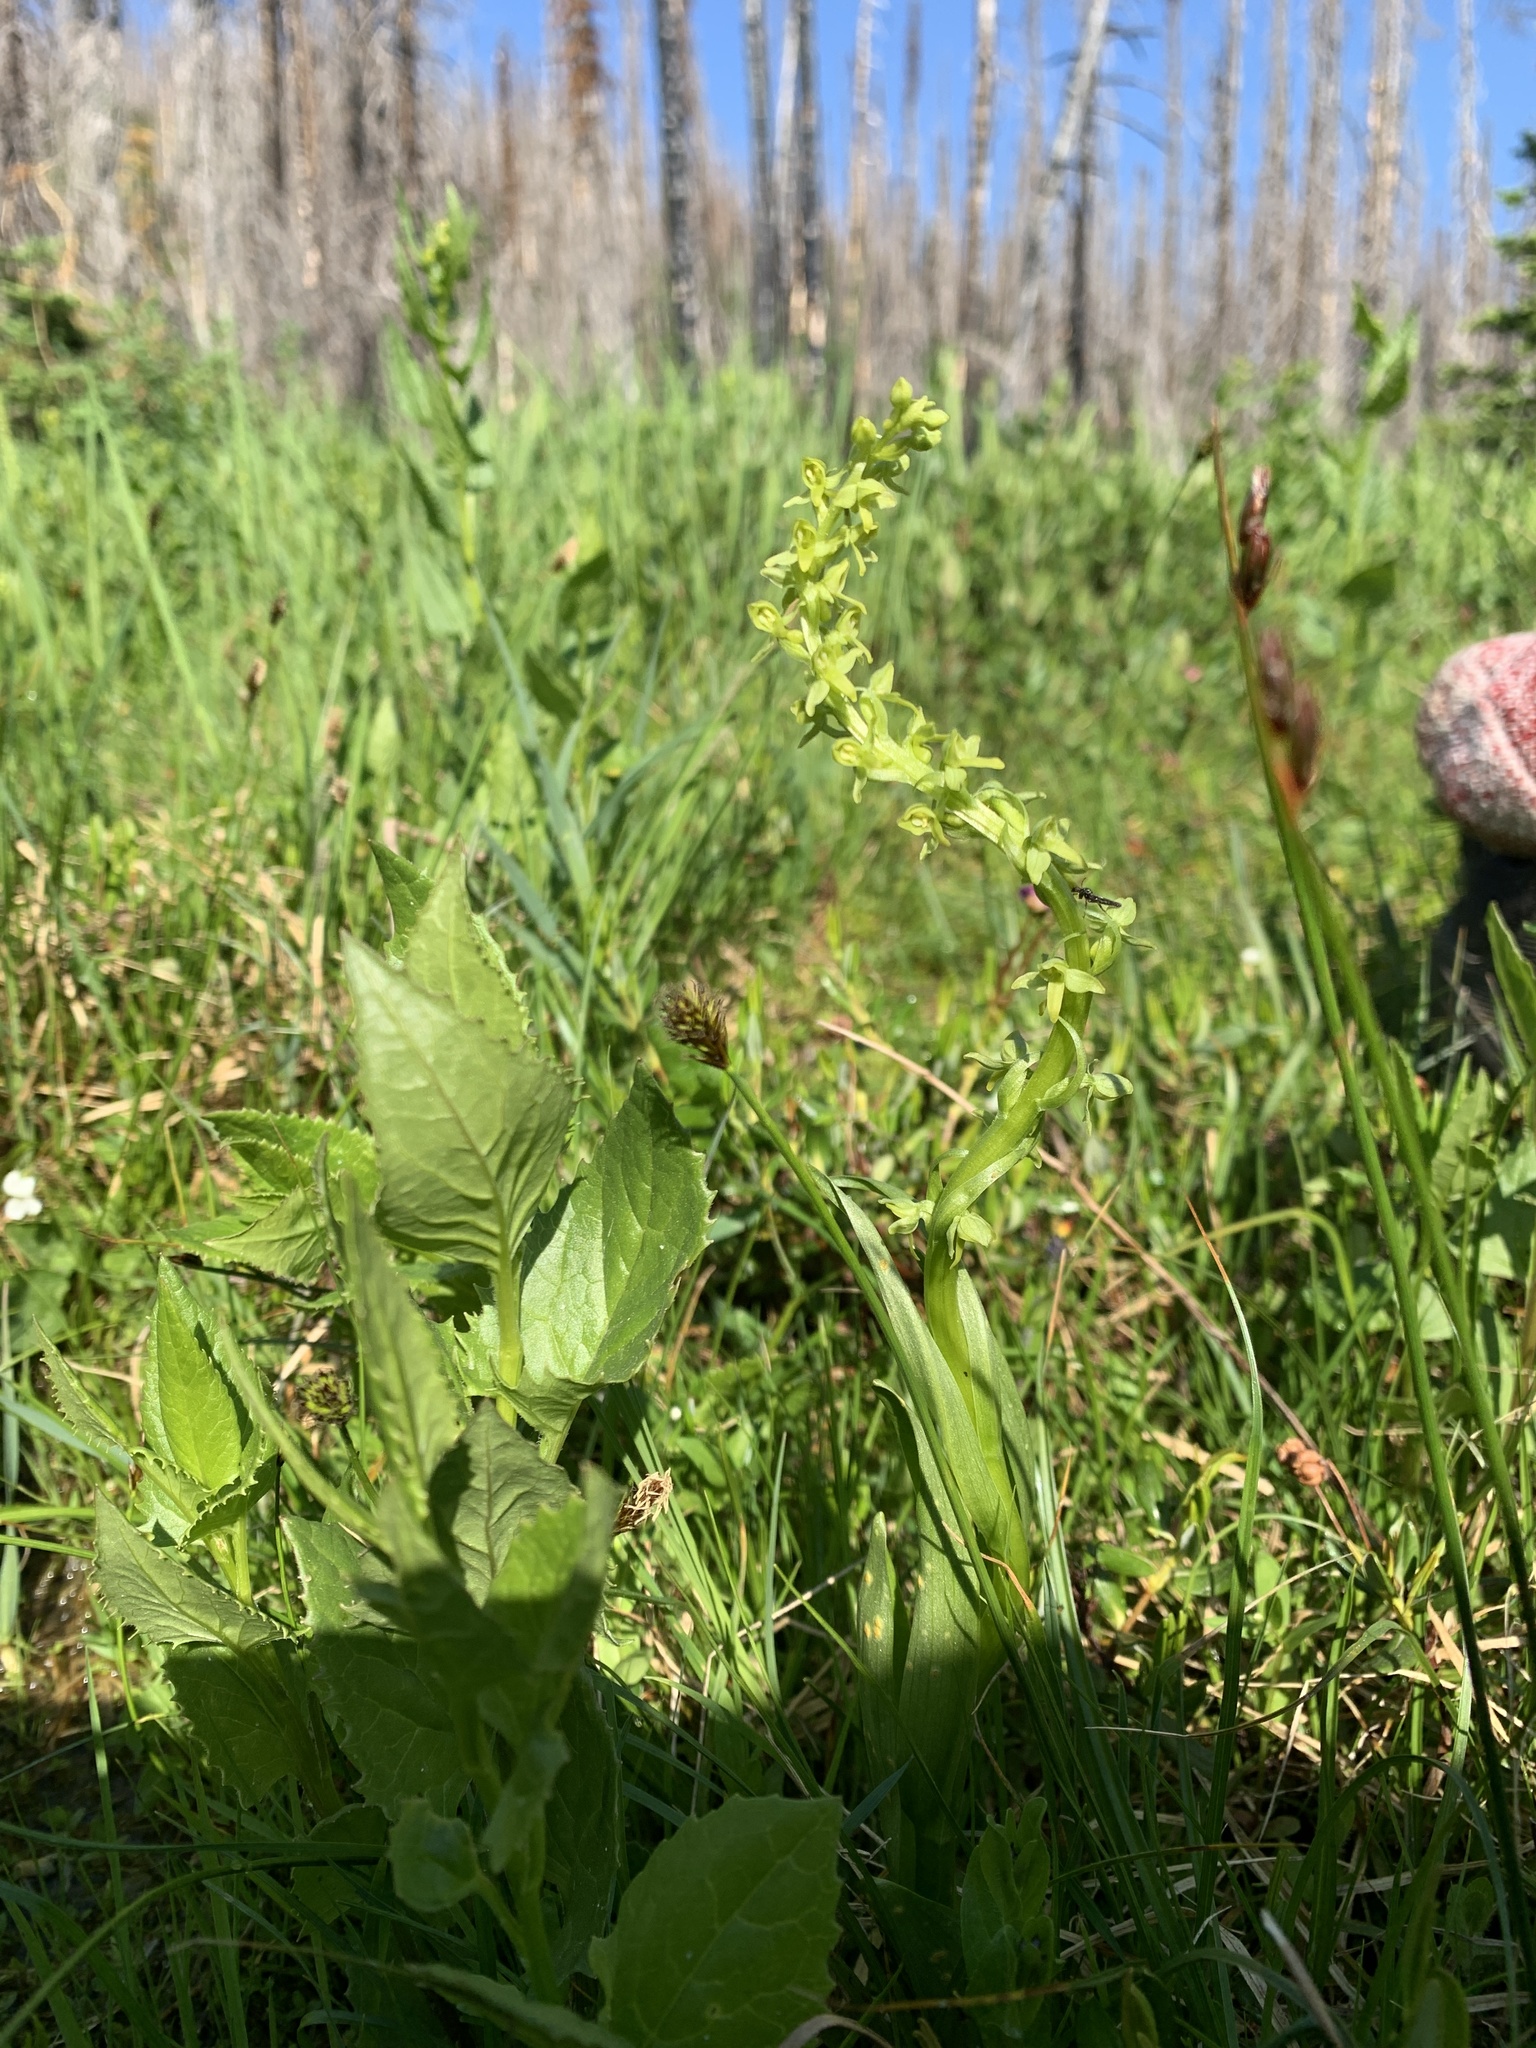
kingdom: Plantae
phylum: Tracheophyta
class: Liliopsida
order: Asparagales
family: Orchidaceae
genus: Platanthera
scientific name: Platanthera stricta
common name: Slender bog orchid
